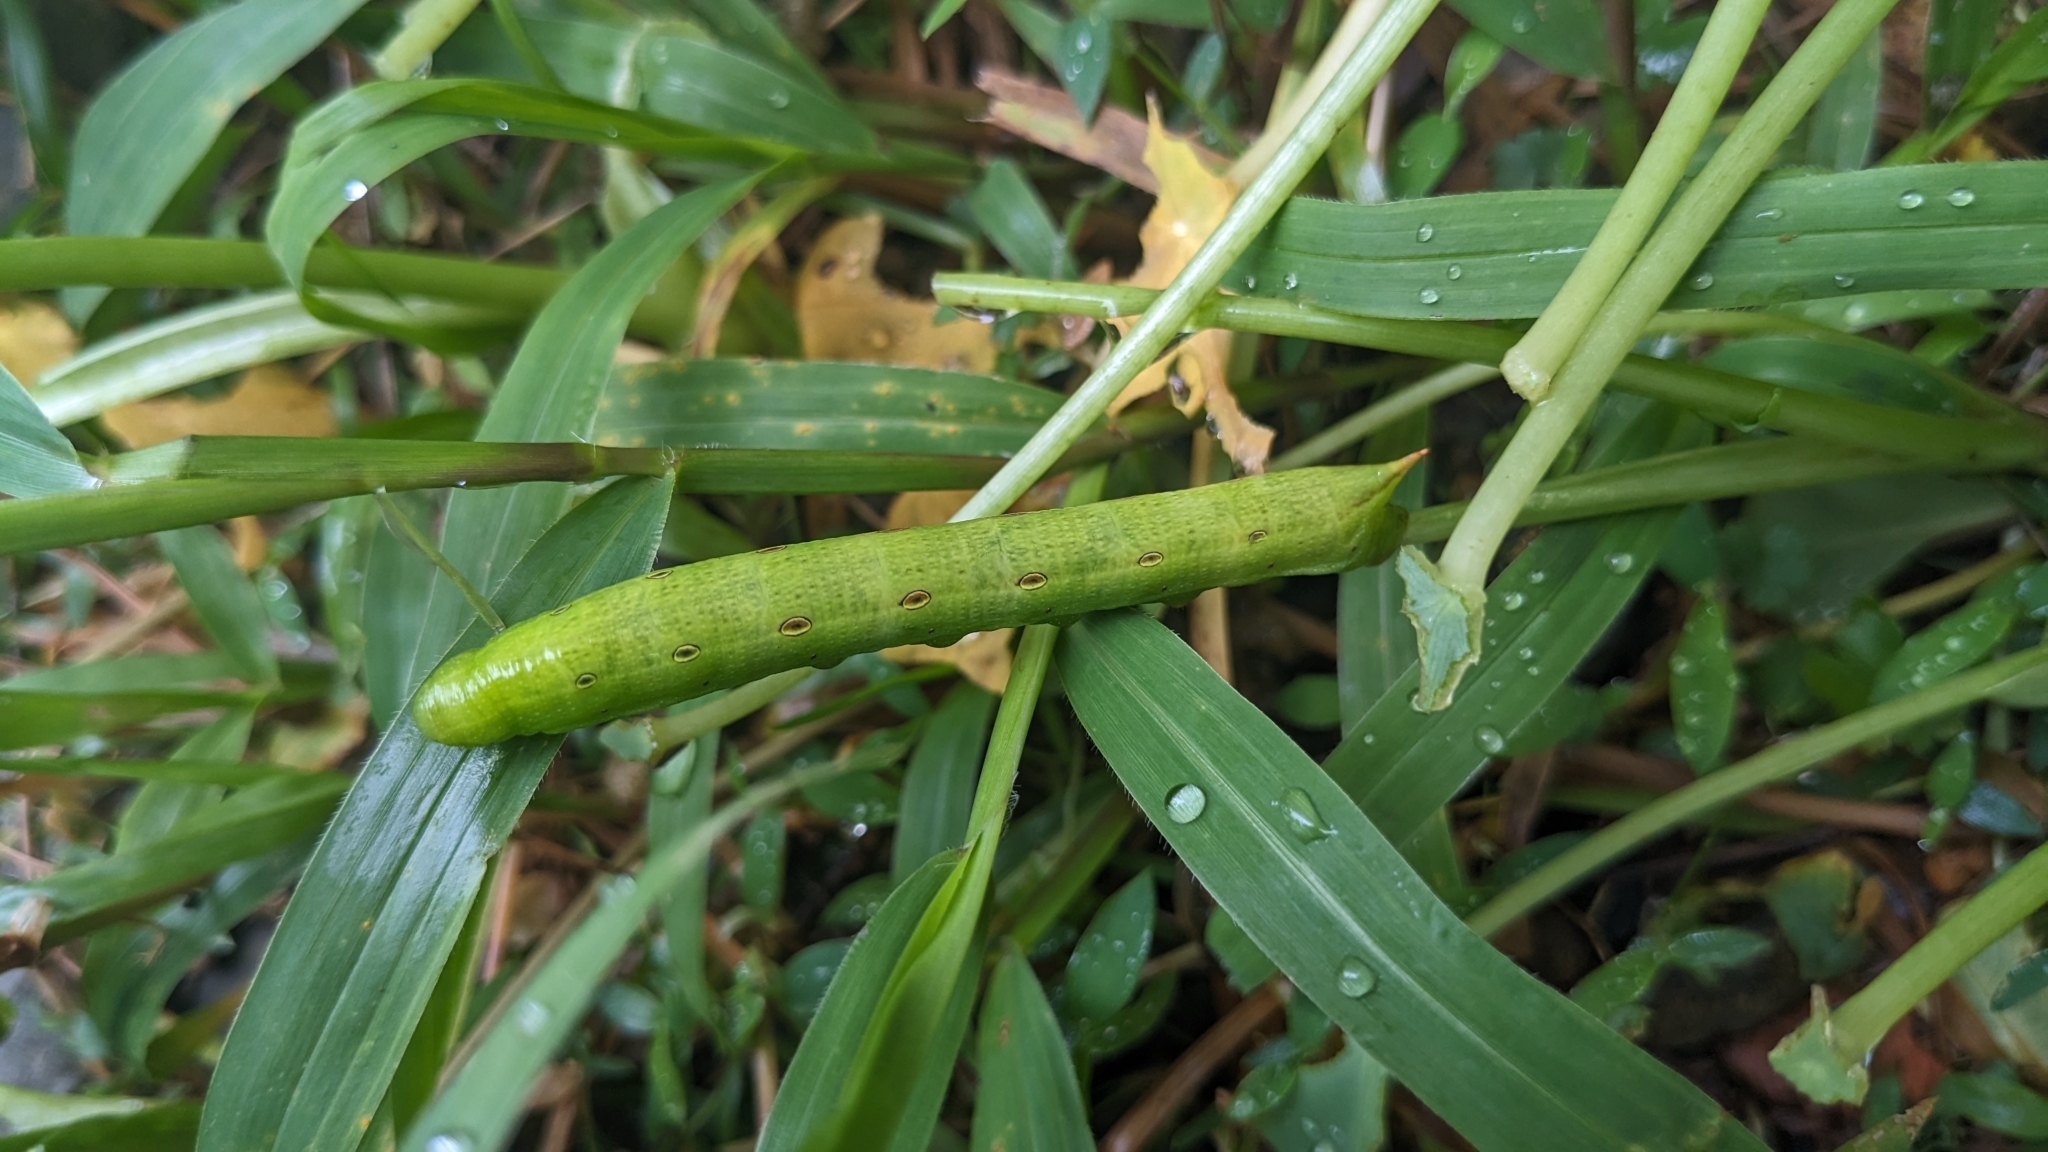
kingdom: Animalia
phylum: Arthropoda
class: Insecta
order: Lepidoptera
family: Sphingidae
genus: Theretra
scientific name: Theretra silhetensis
